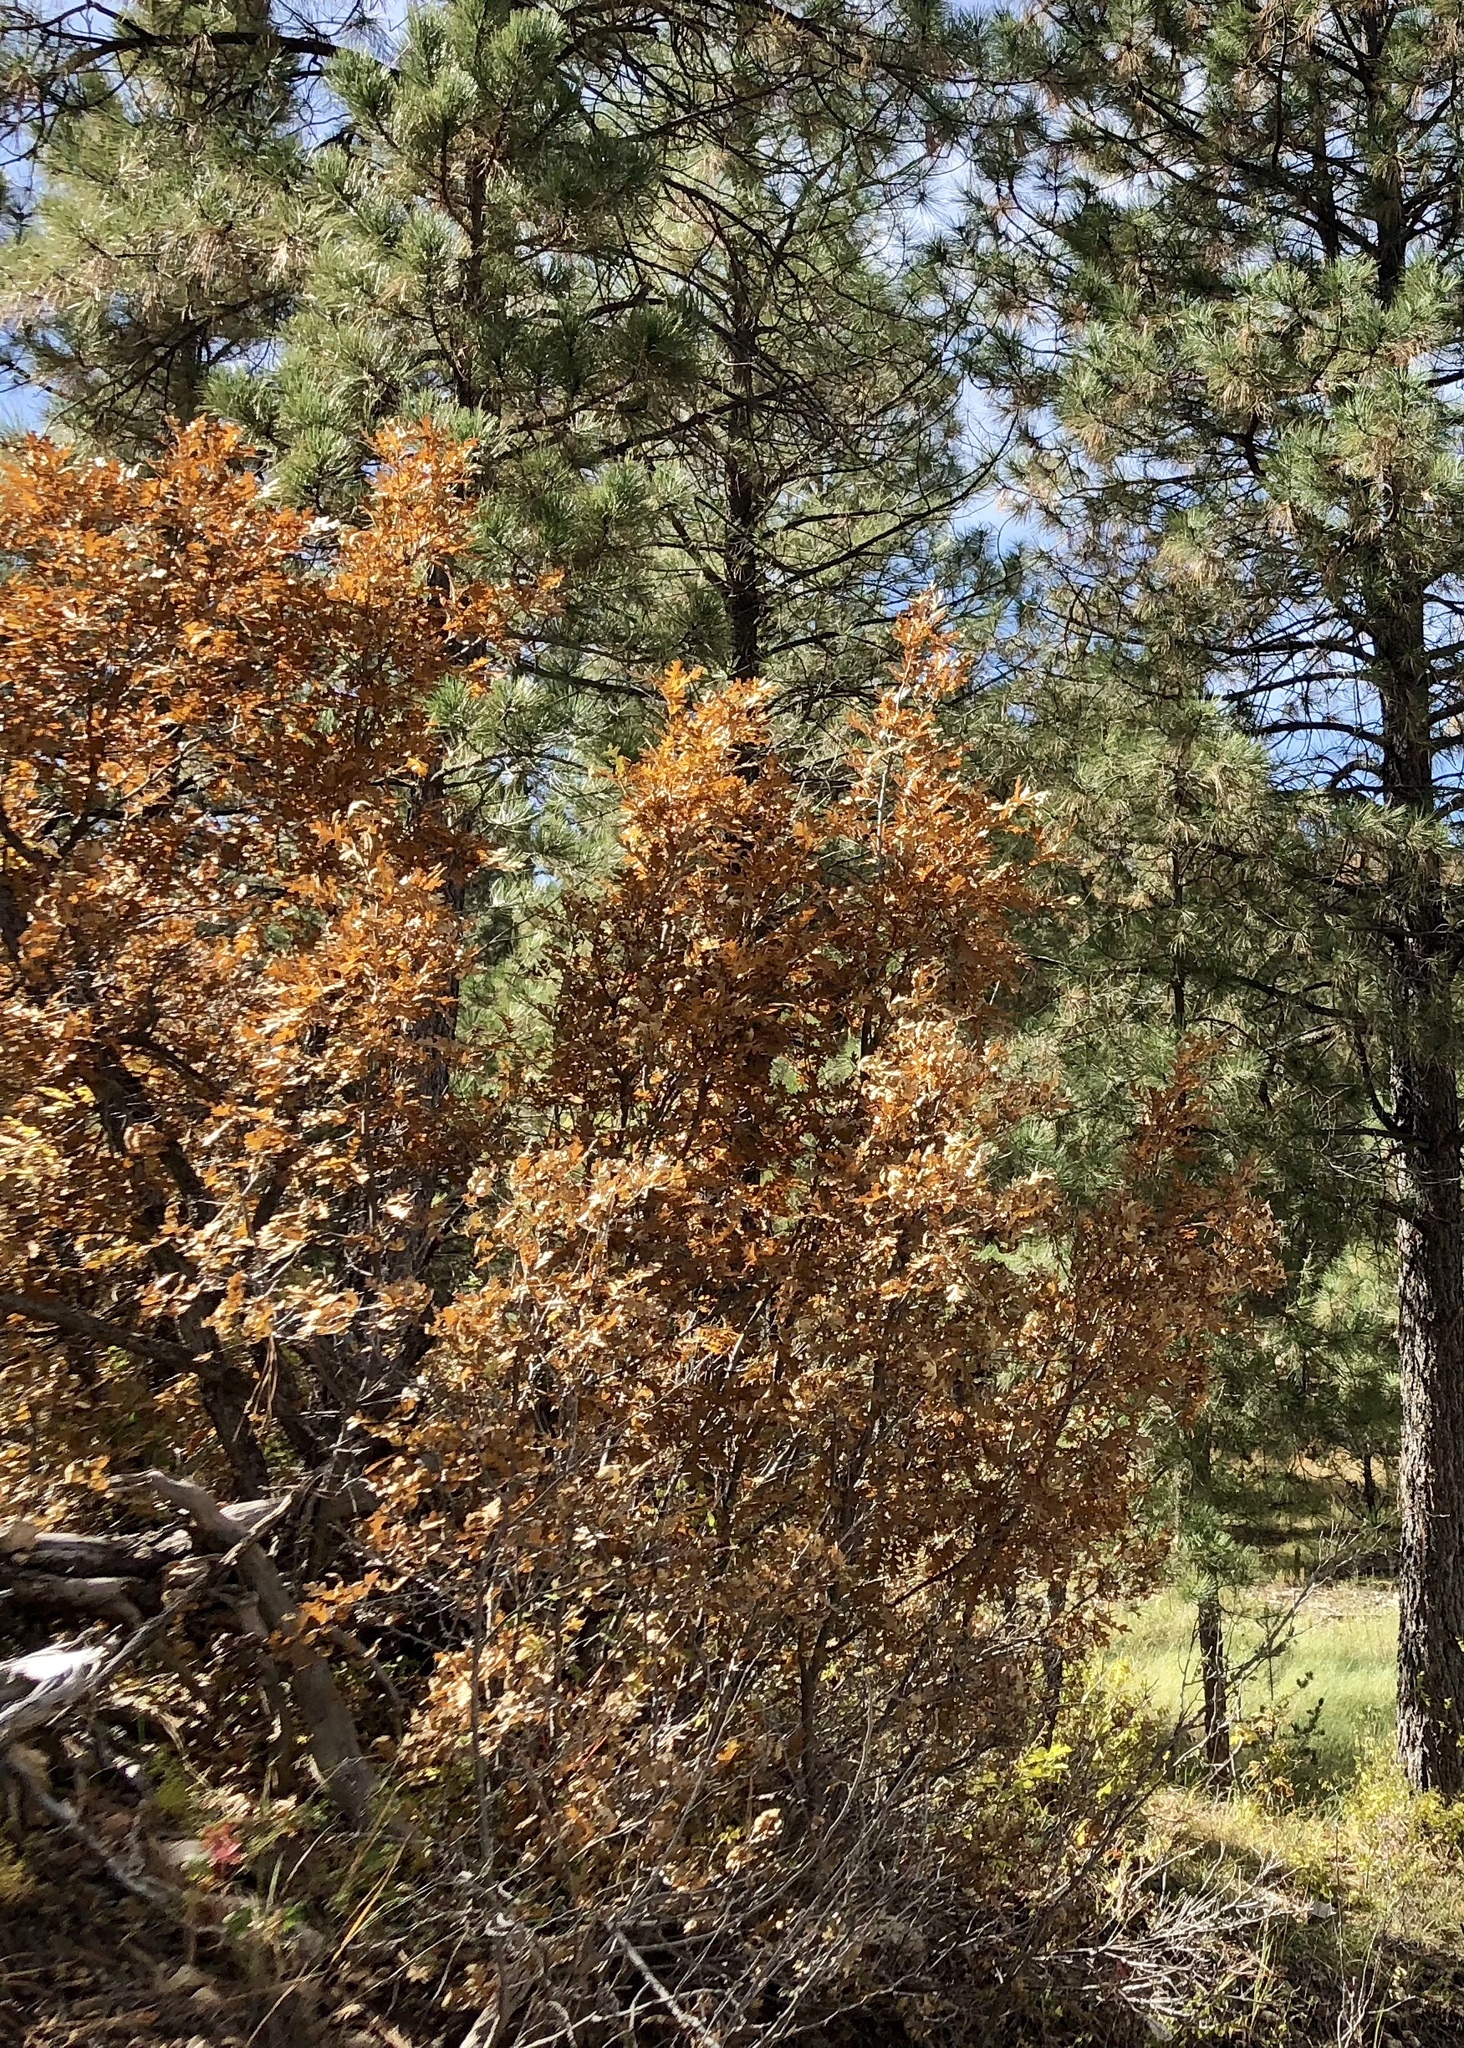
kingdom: Plantae
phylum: Tracheophyta
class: Magnoliopsida
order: Fagales
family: Fagaceae
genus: Quercus
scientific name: Quercus gambelii
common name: Gambel oak
